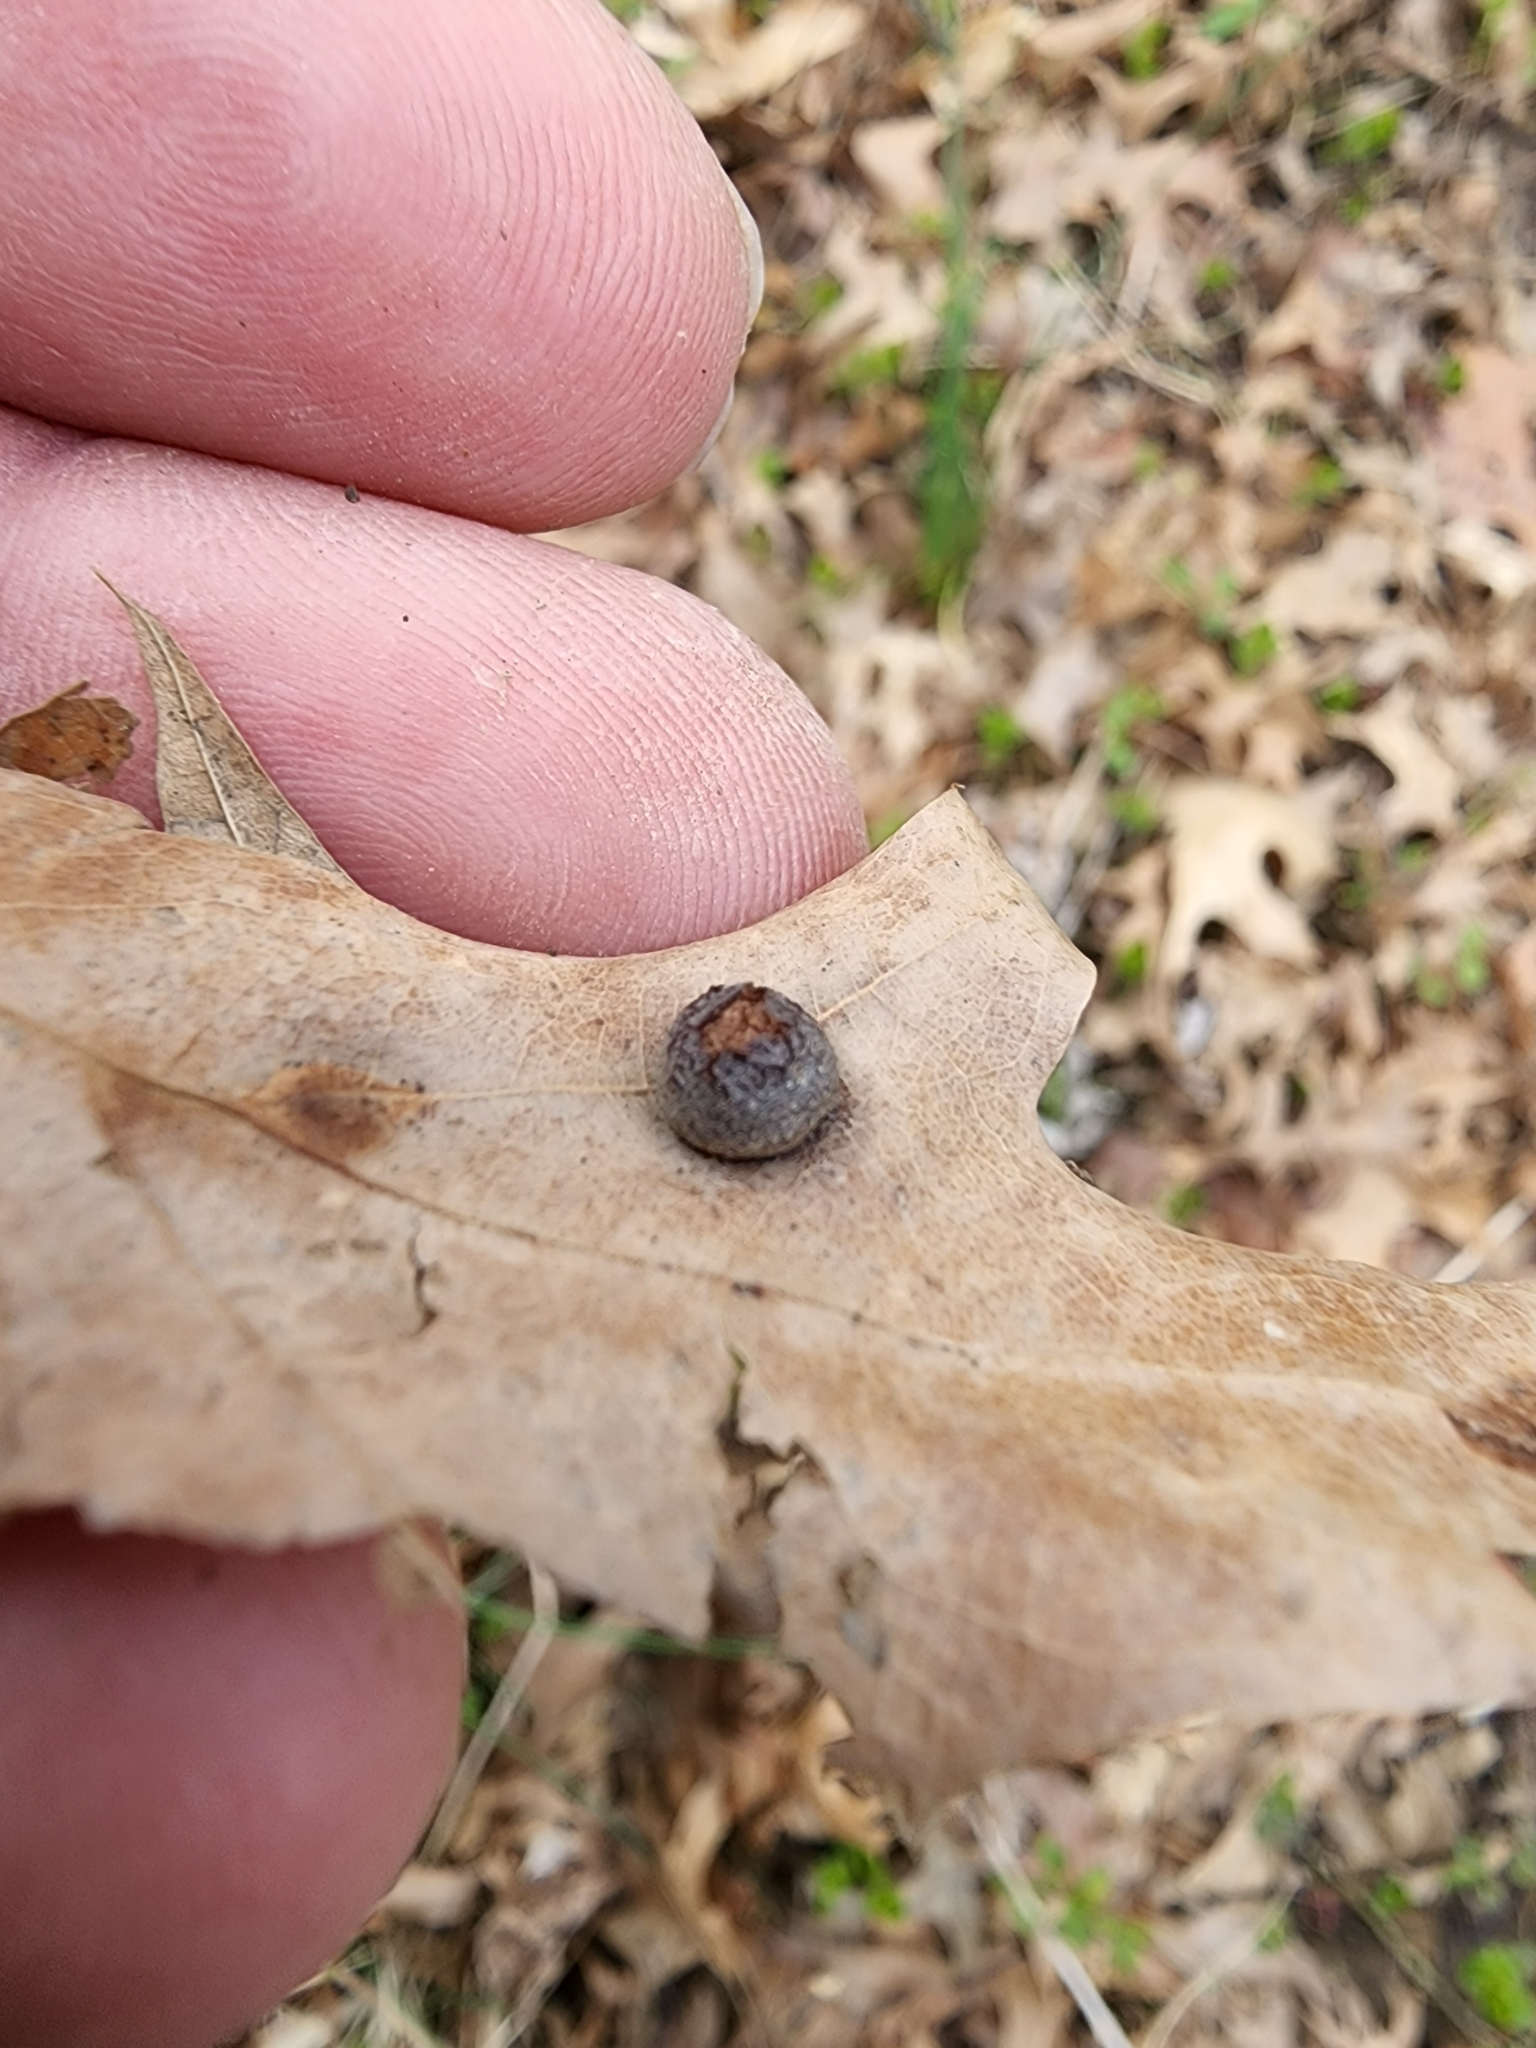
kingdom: Animalia
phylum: Arthropoda
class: Insecta
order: Diptera
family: Cecidomyiidae
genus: Polystepha
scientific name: Polystepha pilulae
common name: Oak leaf gall midge
